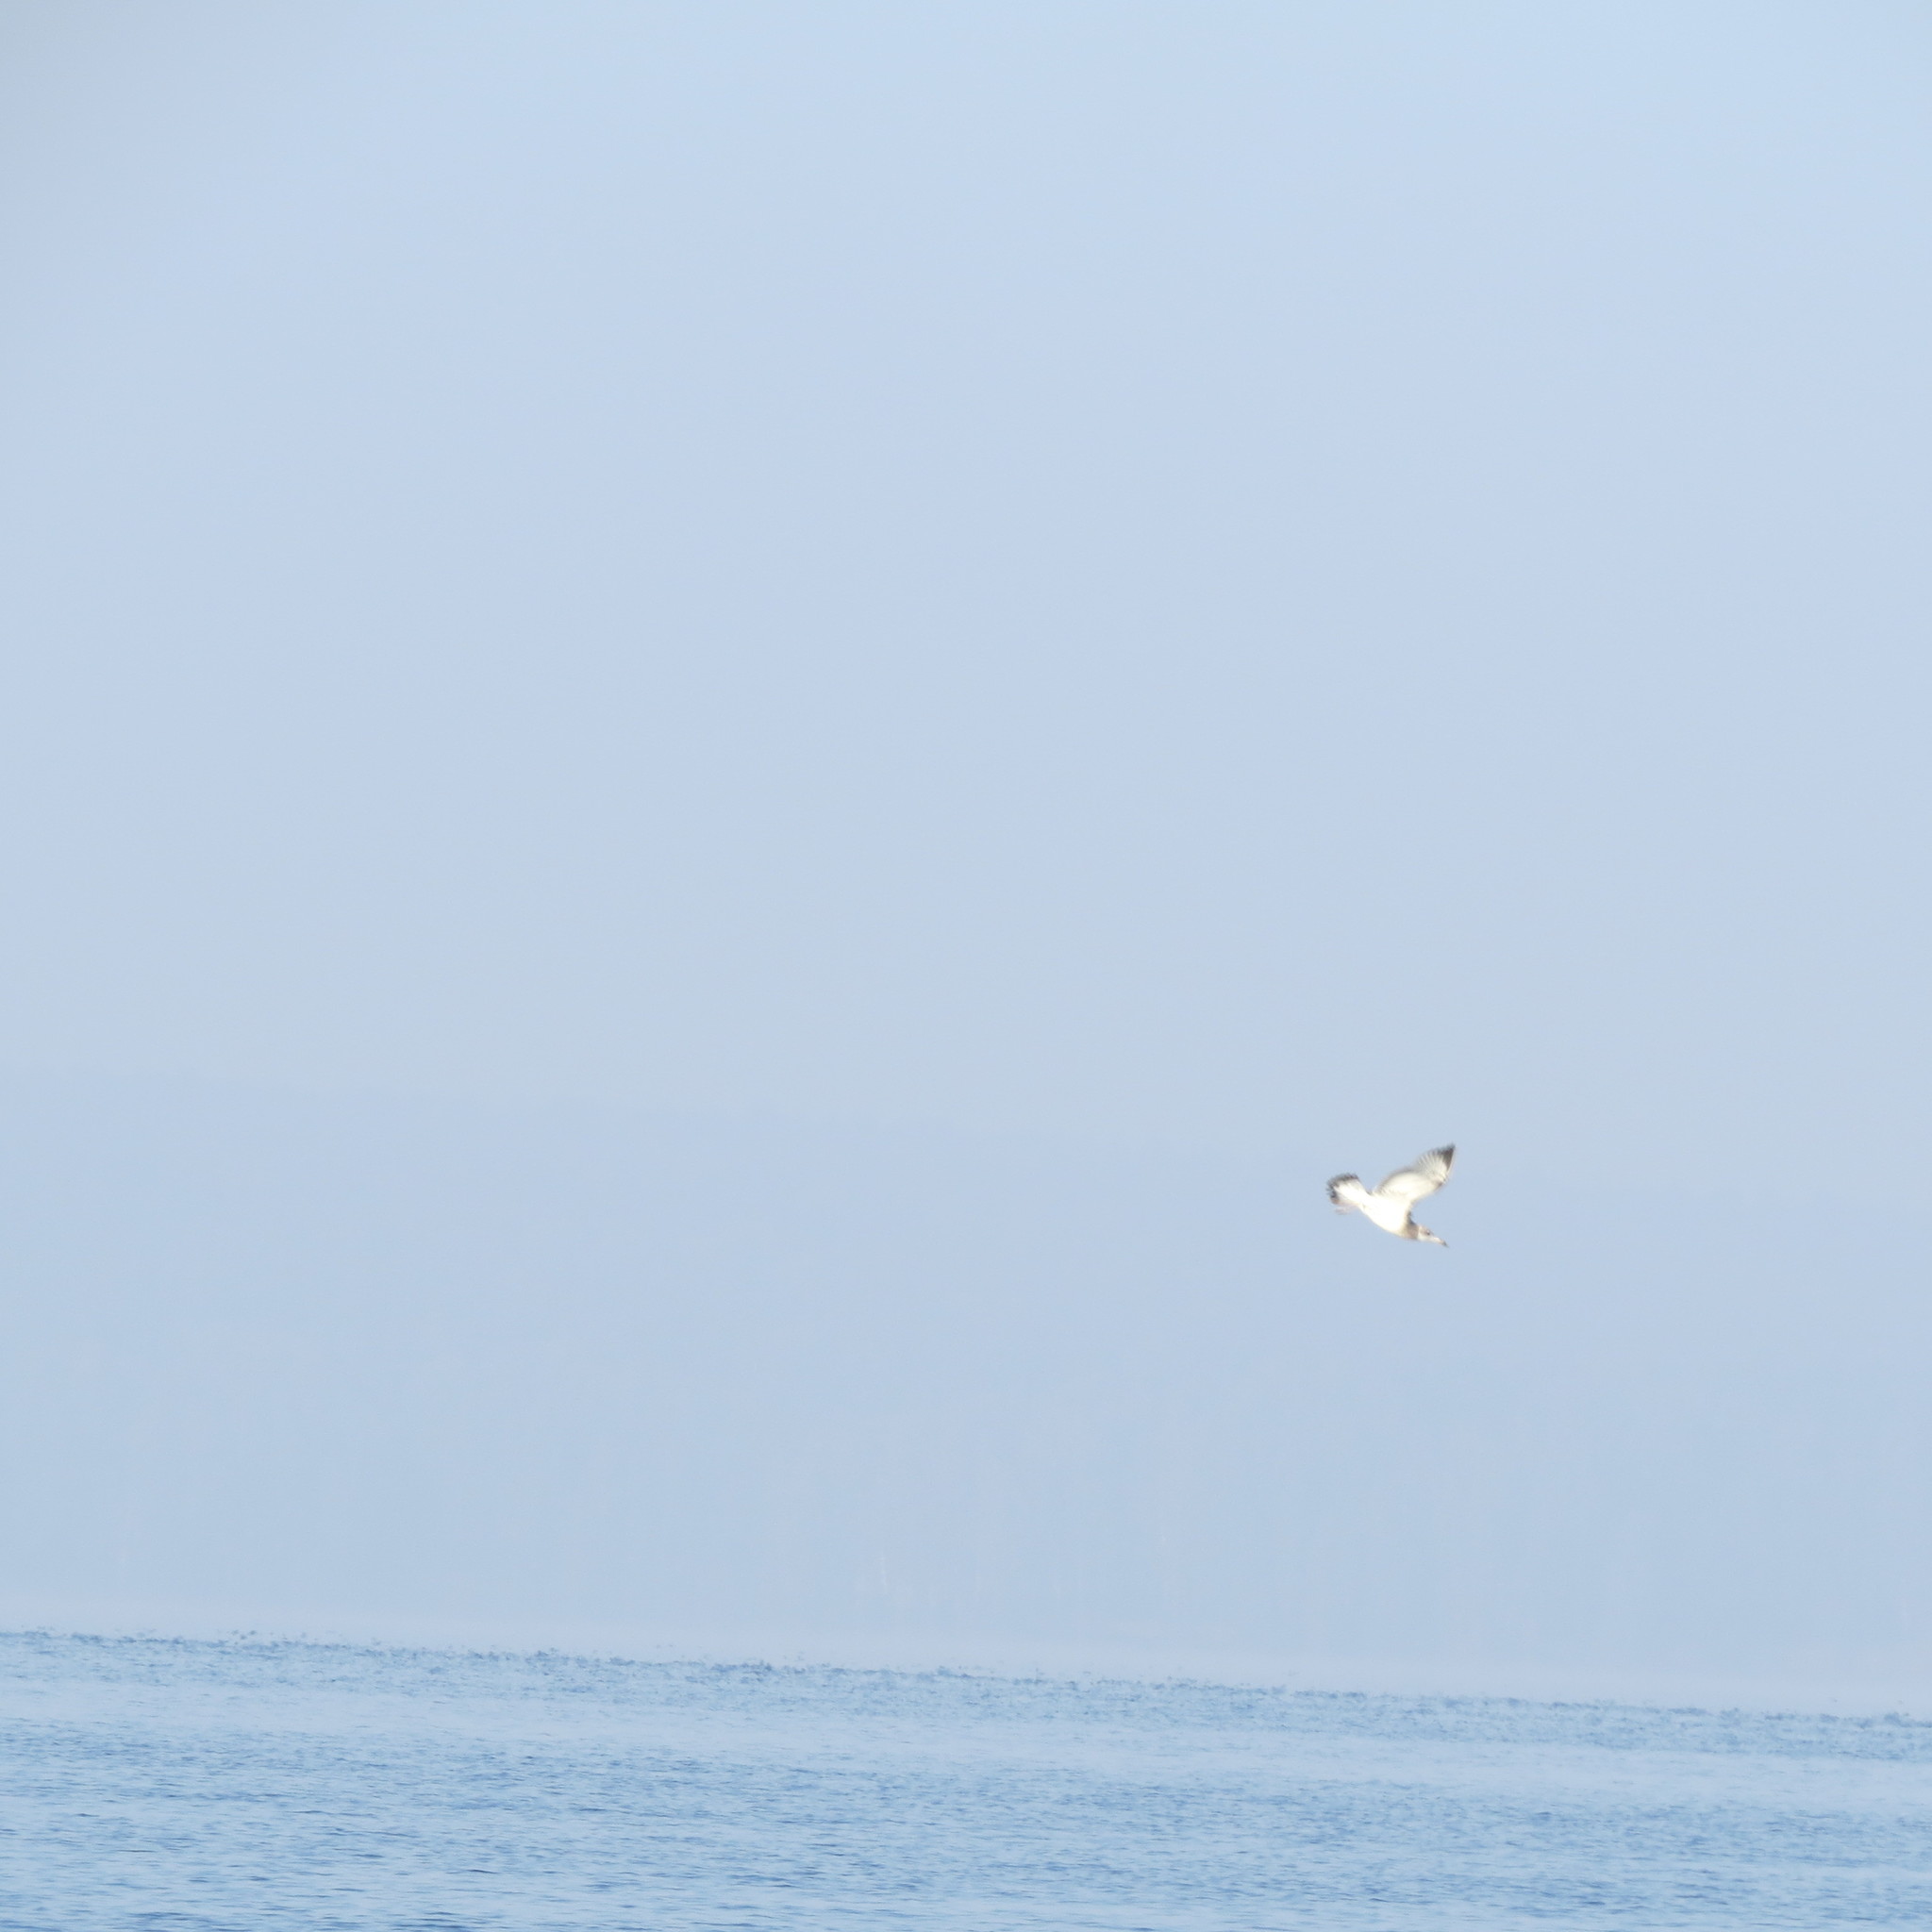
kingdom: Animalia
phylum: Chordata
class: Aves
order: Charadriiformes
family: Laridae
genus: Ichthyaetus
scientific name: Ichthyaetus ichthyaetus
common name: Pallas's gull
